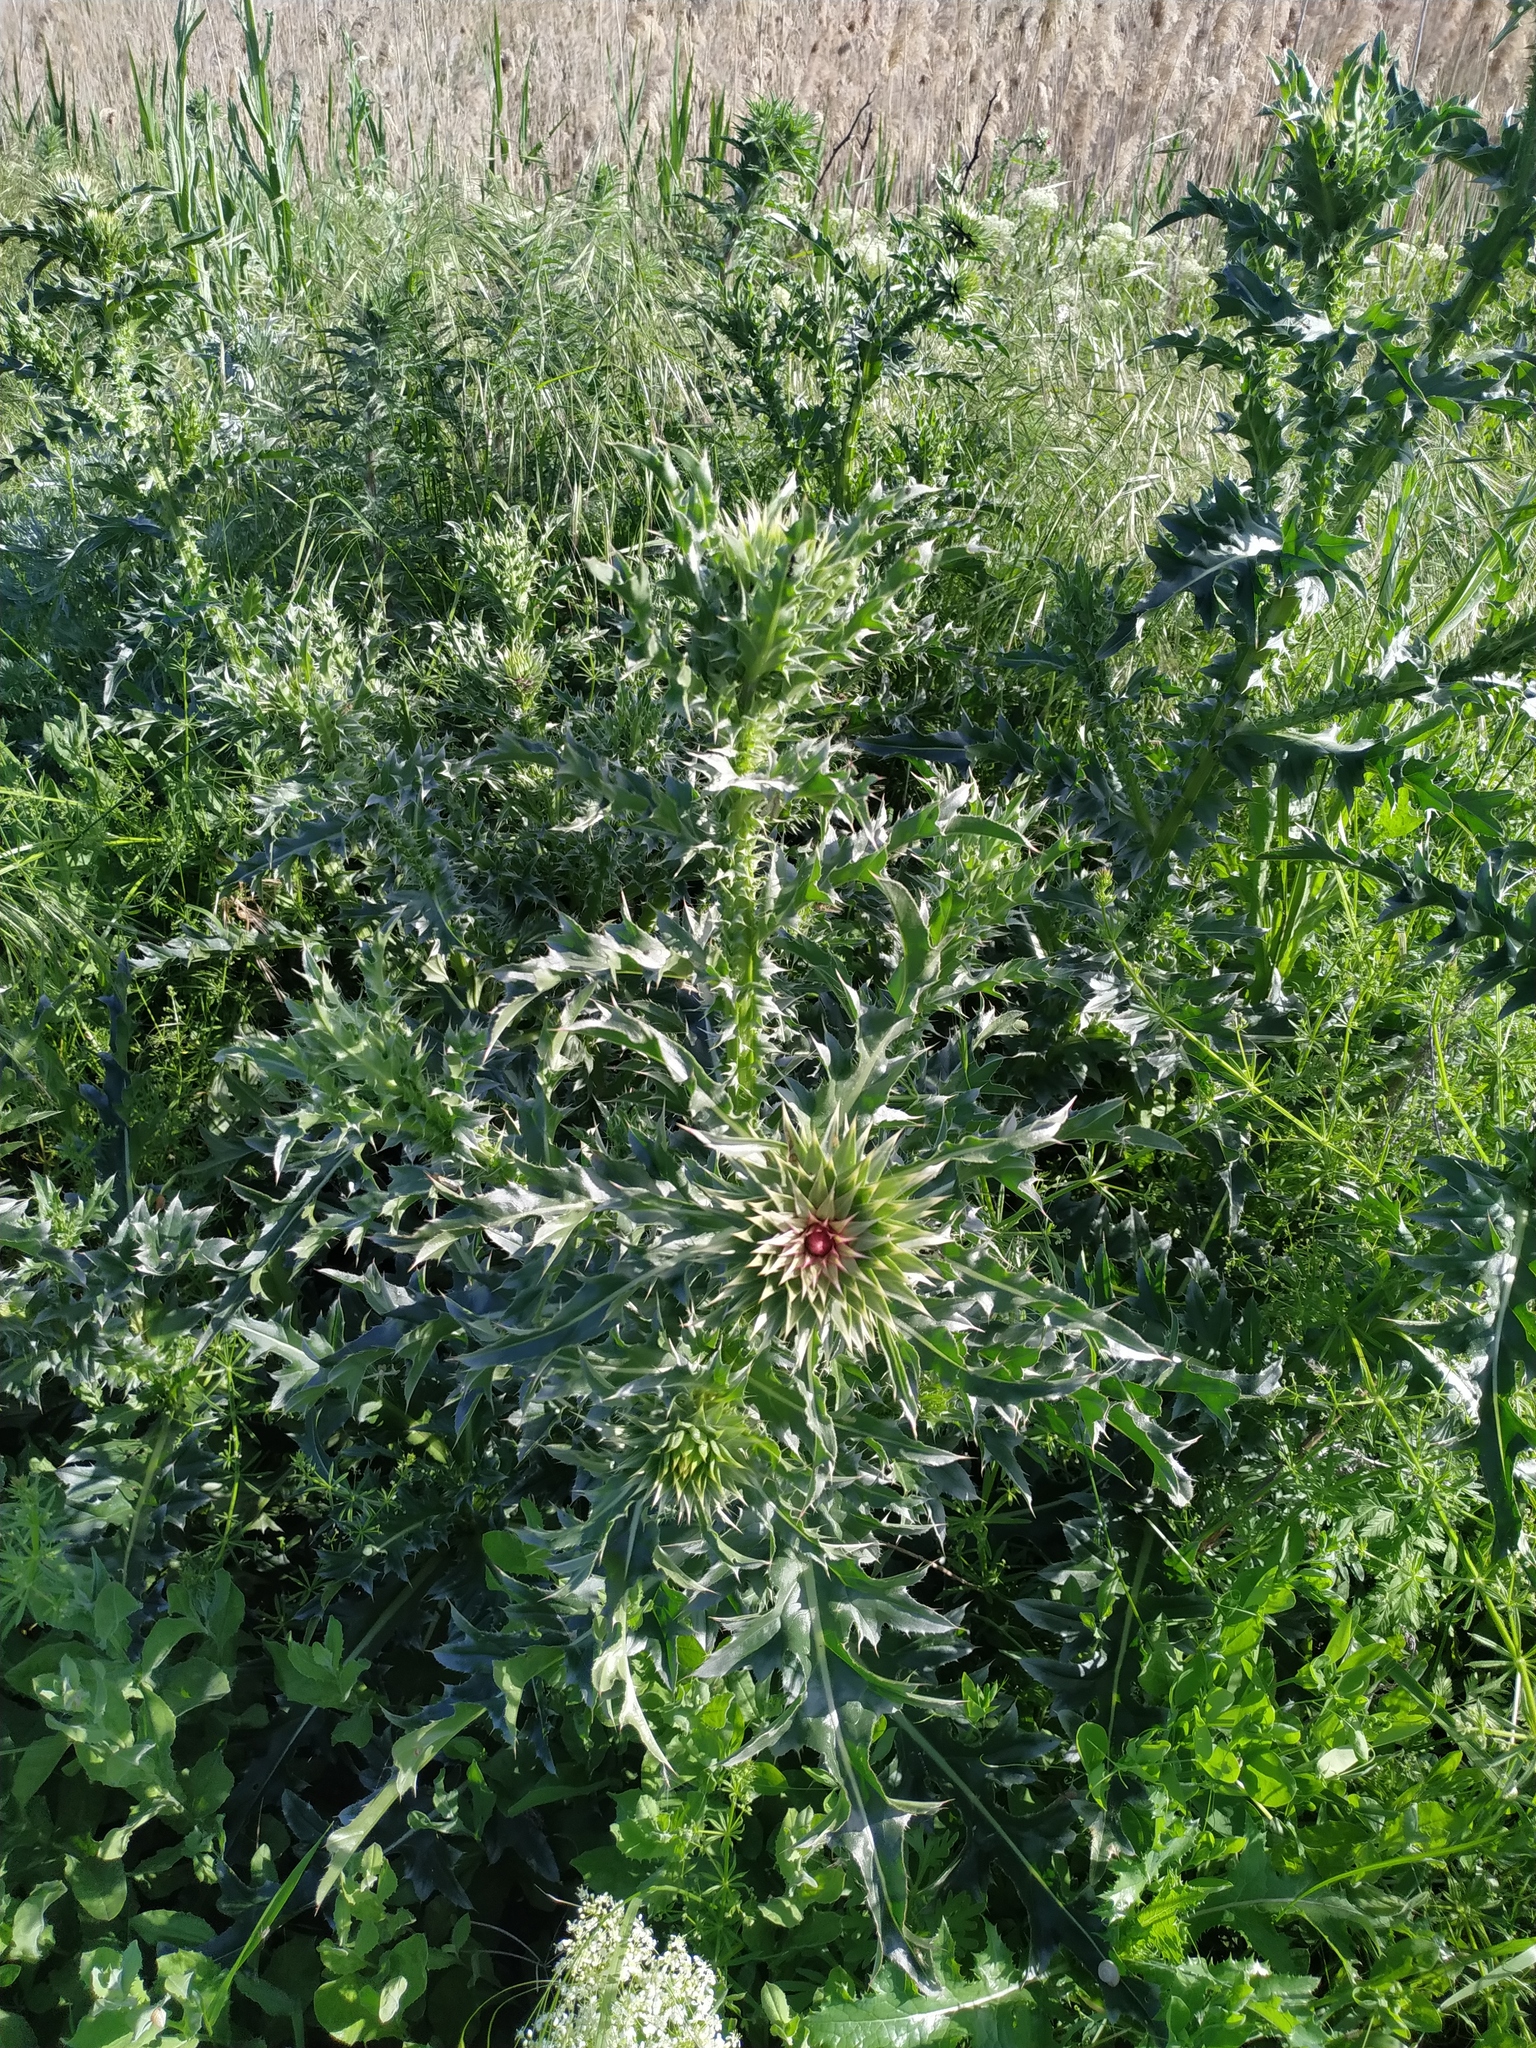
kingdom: Plantae
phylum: Tracheophyta
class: Magnoliopsida
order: Asterales
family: Asteraceae
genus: Carduus
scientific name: Carduus nutans
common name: Musk thistle
